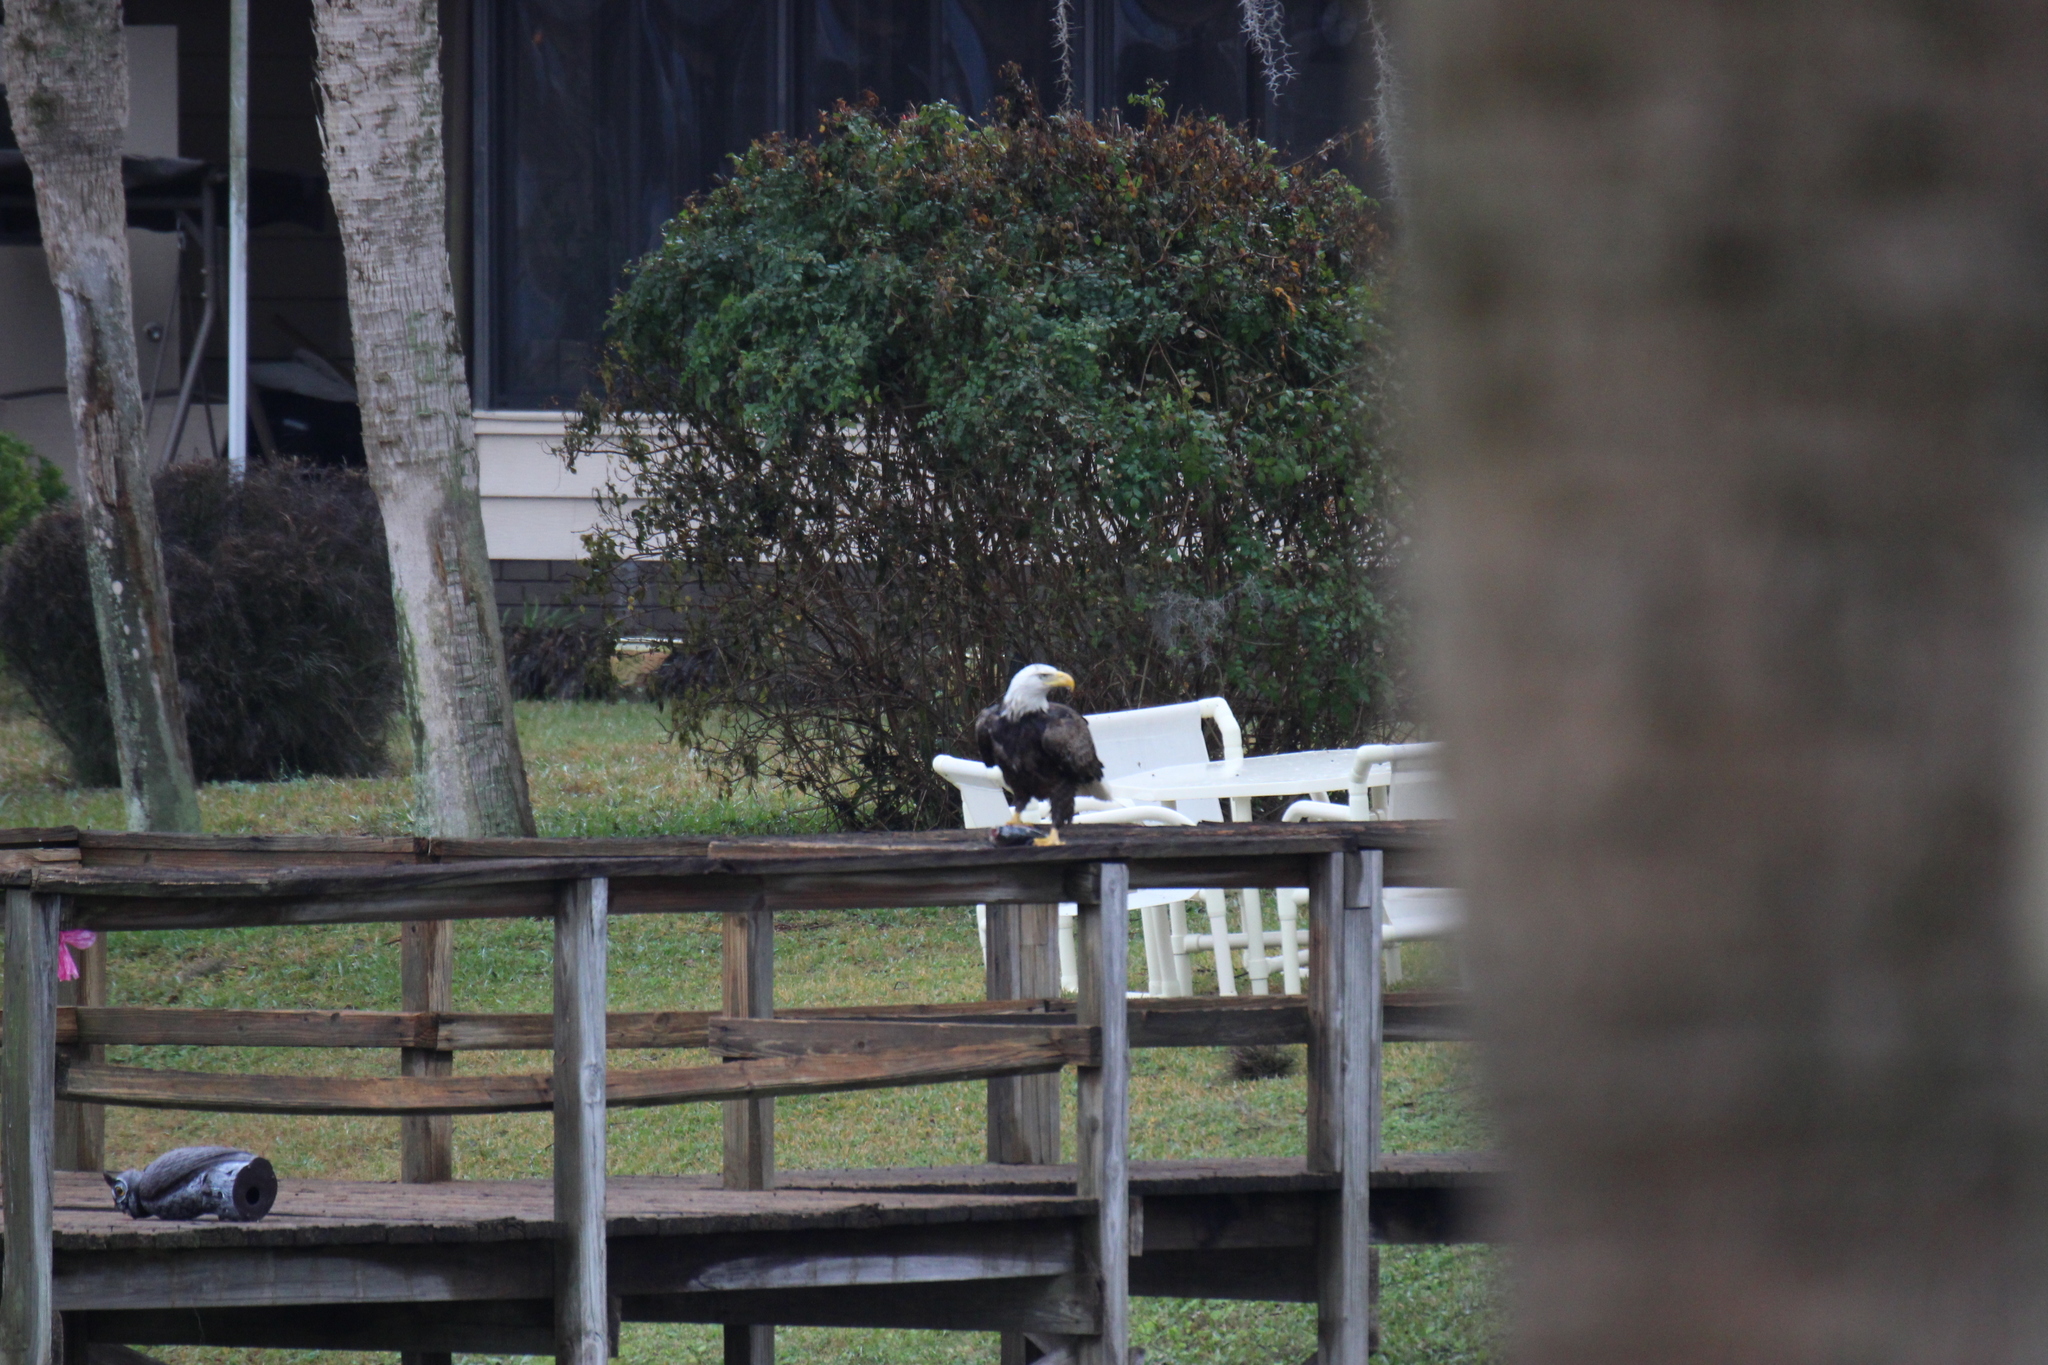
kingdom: Animalia
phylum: Chordata
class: Aves
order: Accipitriformes
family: Accipitridae
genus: Haliaeetus
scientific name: Haliaeetus leucocephalus
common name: Bald eagle
